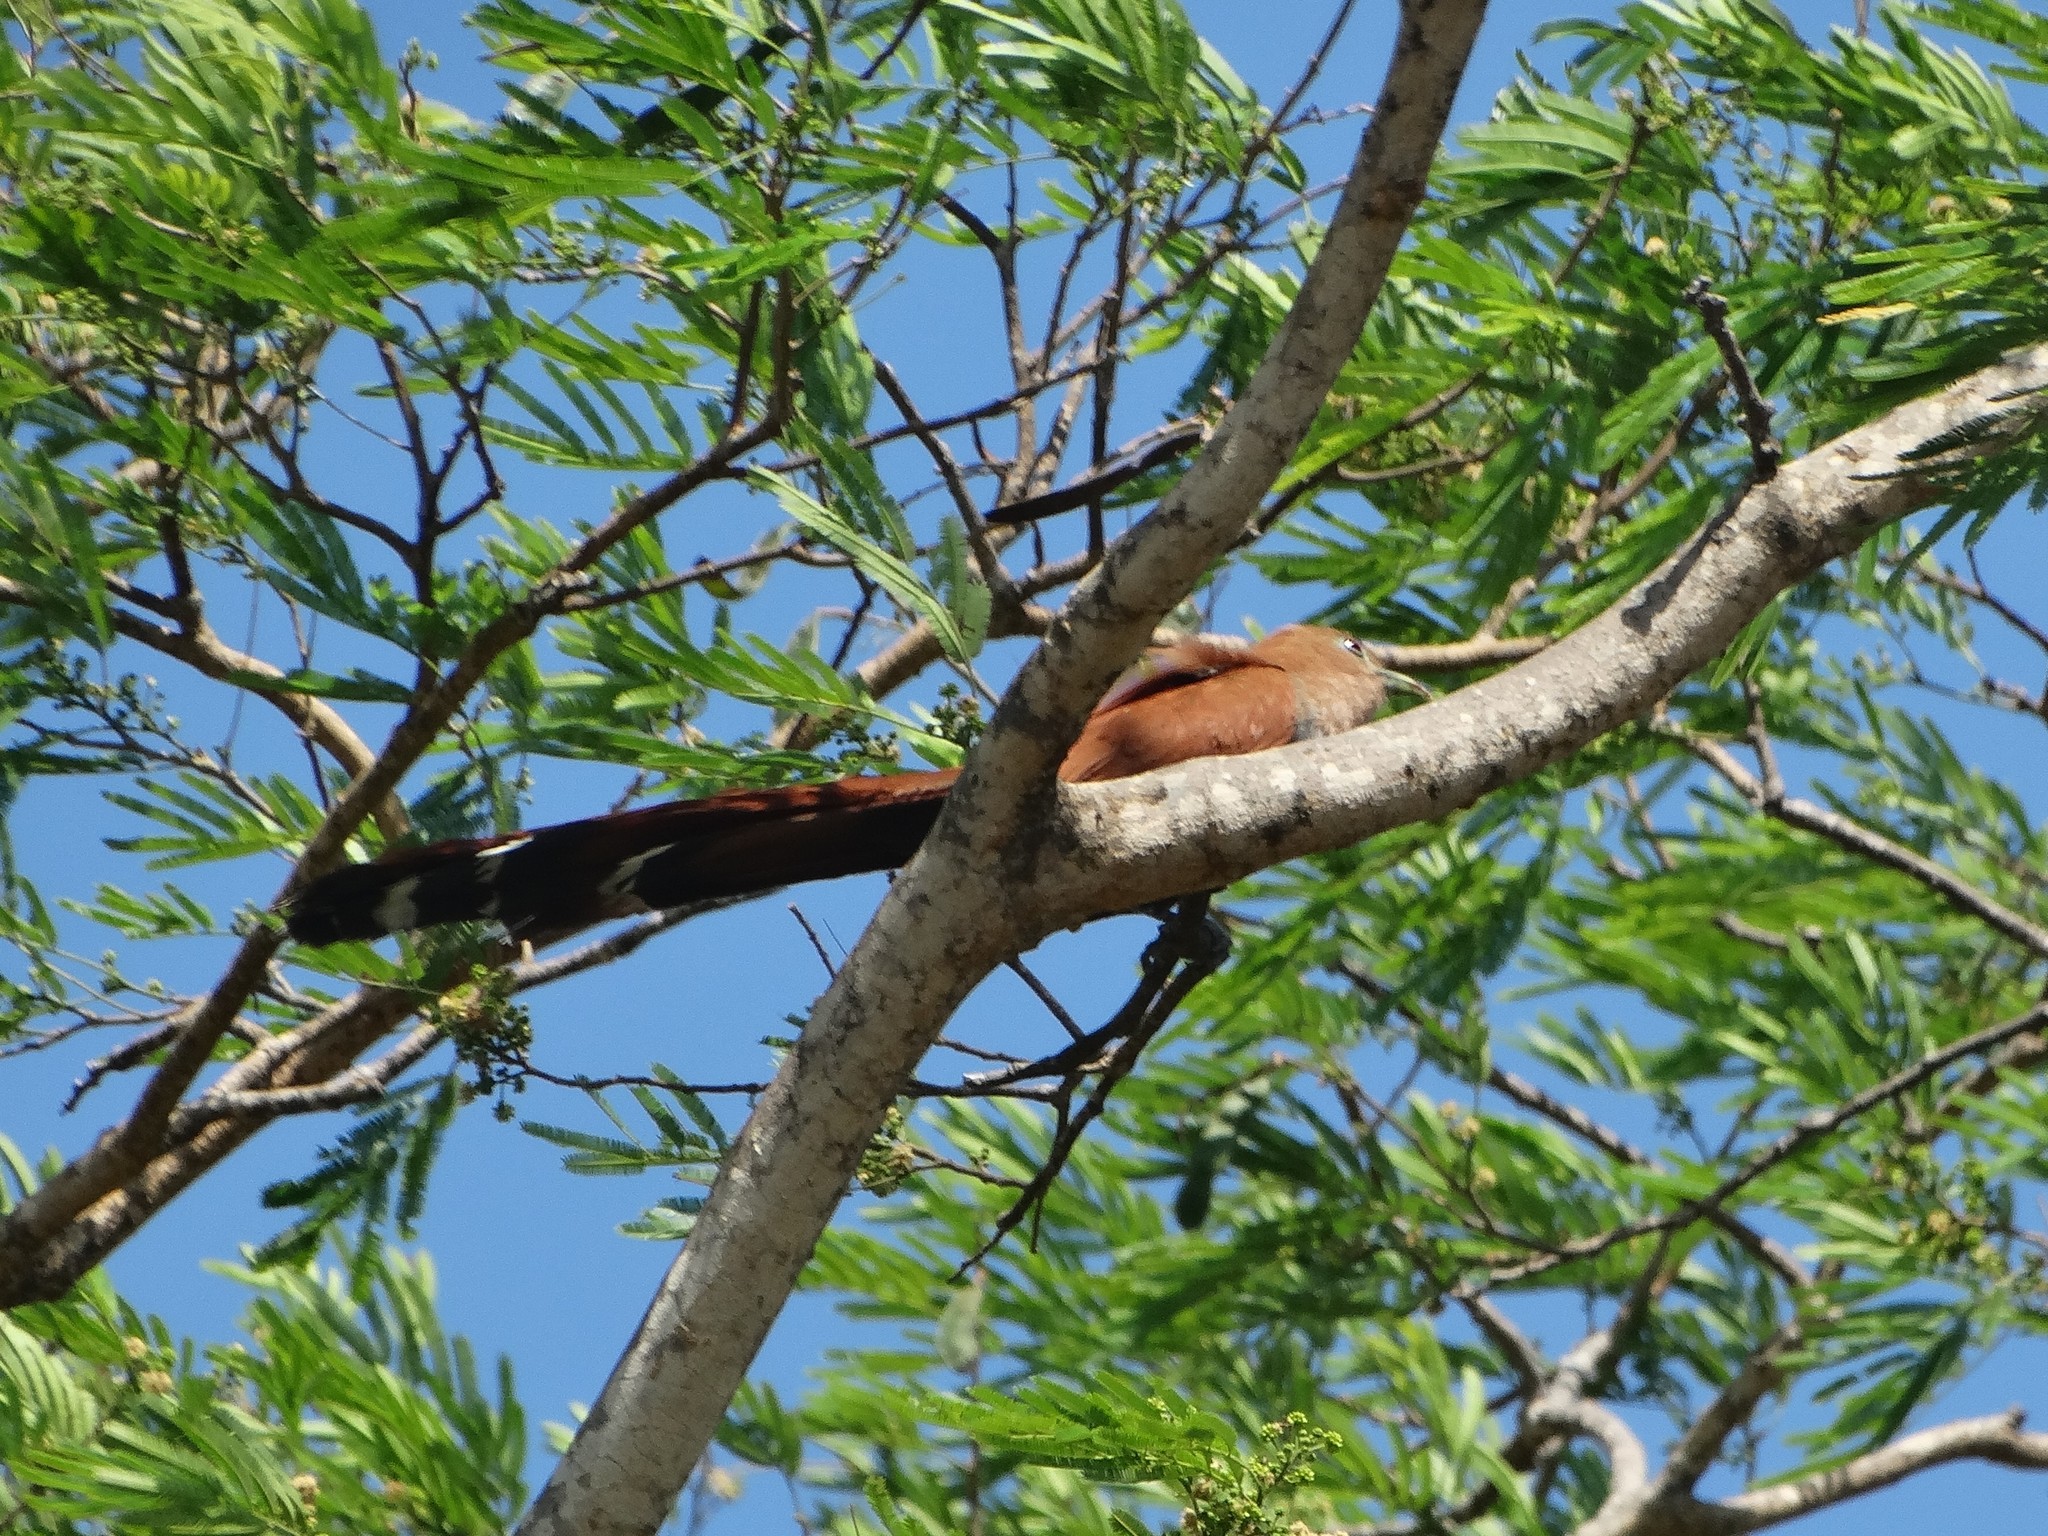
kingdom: Animalia
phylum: Chordata
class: Aves
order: Cuculiformes
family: Cuculidae
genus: Piaya
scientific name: Piaya cayana
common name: Squirrel cuckoo
